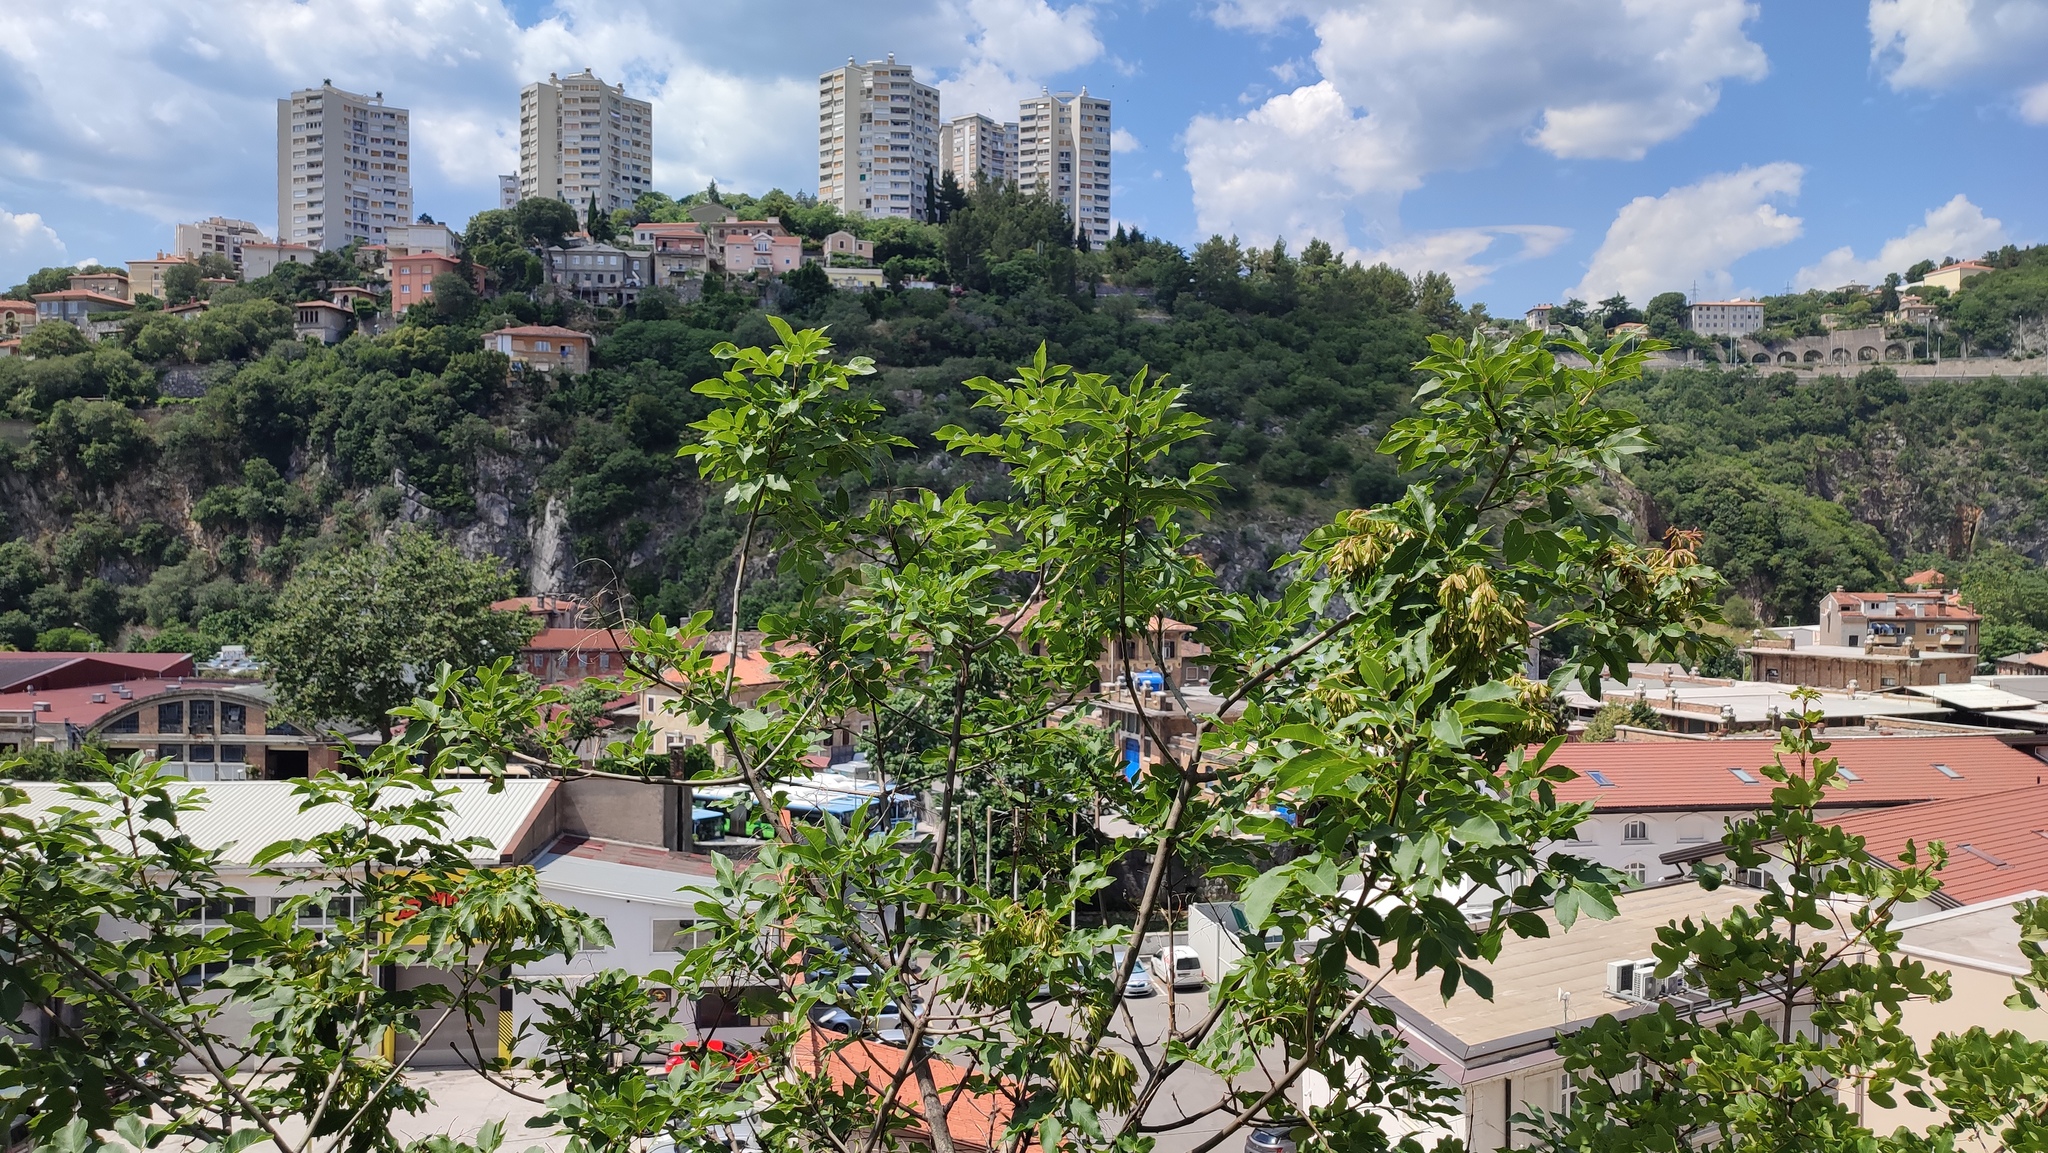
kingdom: Plantae
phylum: Tracheophyta
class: Magnoliopsida
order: Lamiales
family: Oleaceae
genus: Fraxinus
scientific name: Fraxinus ornus
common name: Manna ash
